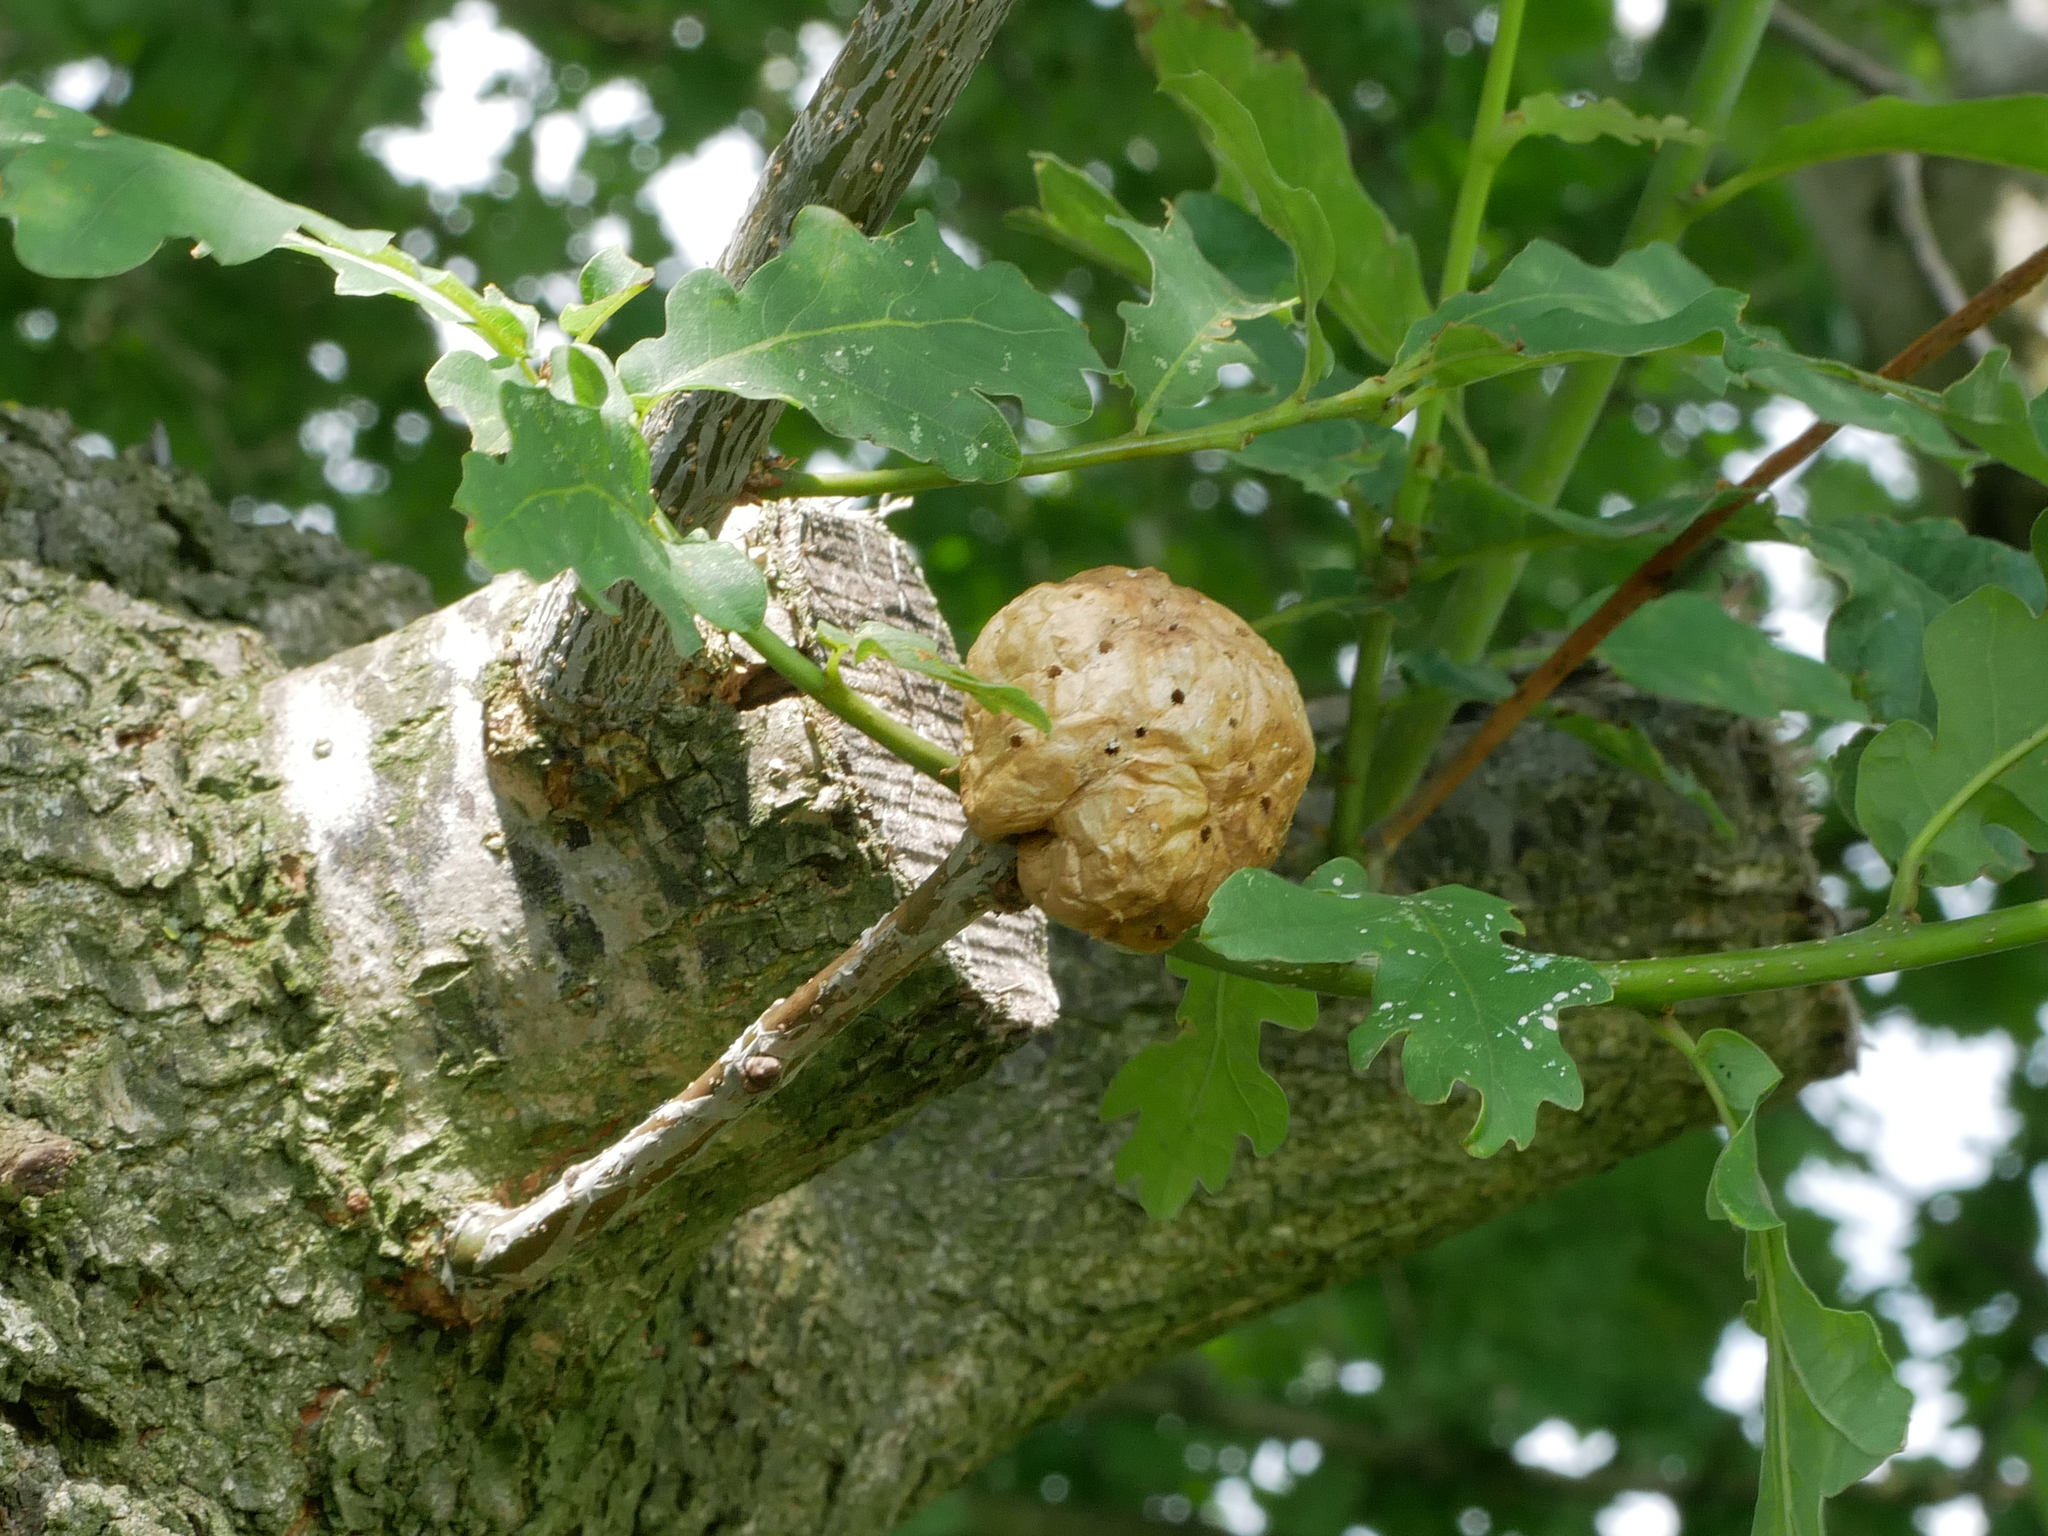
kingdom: Animalia
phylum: Arthropoda
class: Insecta
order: Hymenoptera
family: Cynipidae
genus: Biorhiza
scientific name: Biorhiza pallida
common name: Oak apple
